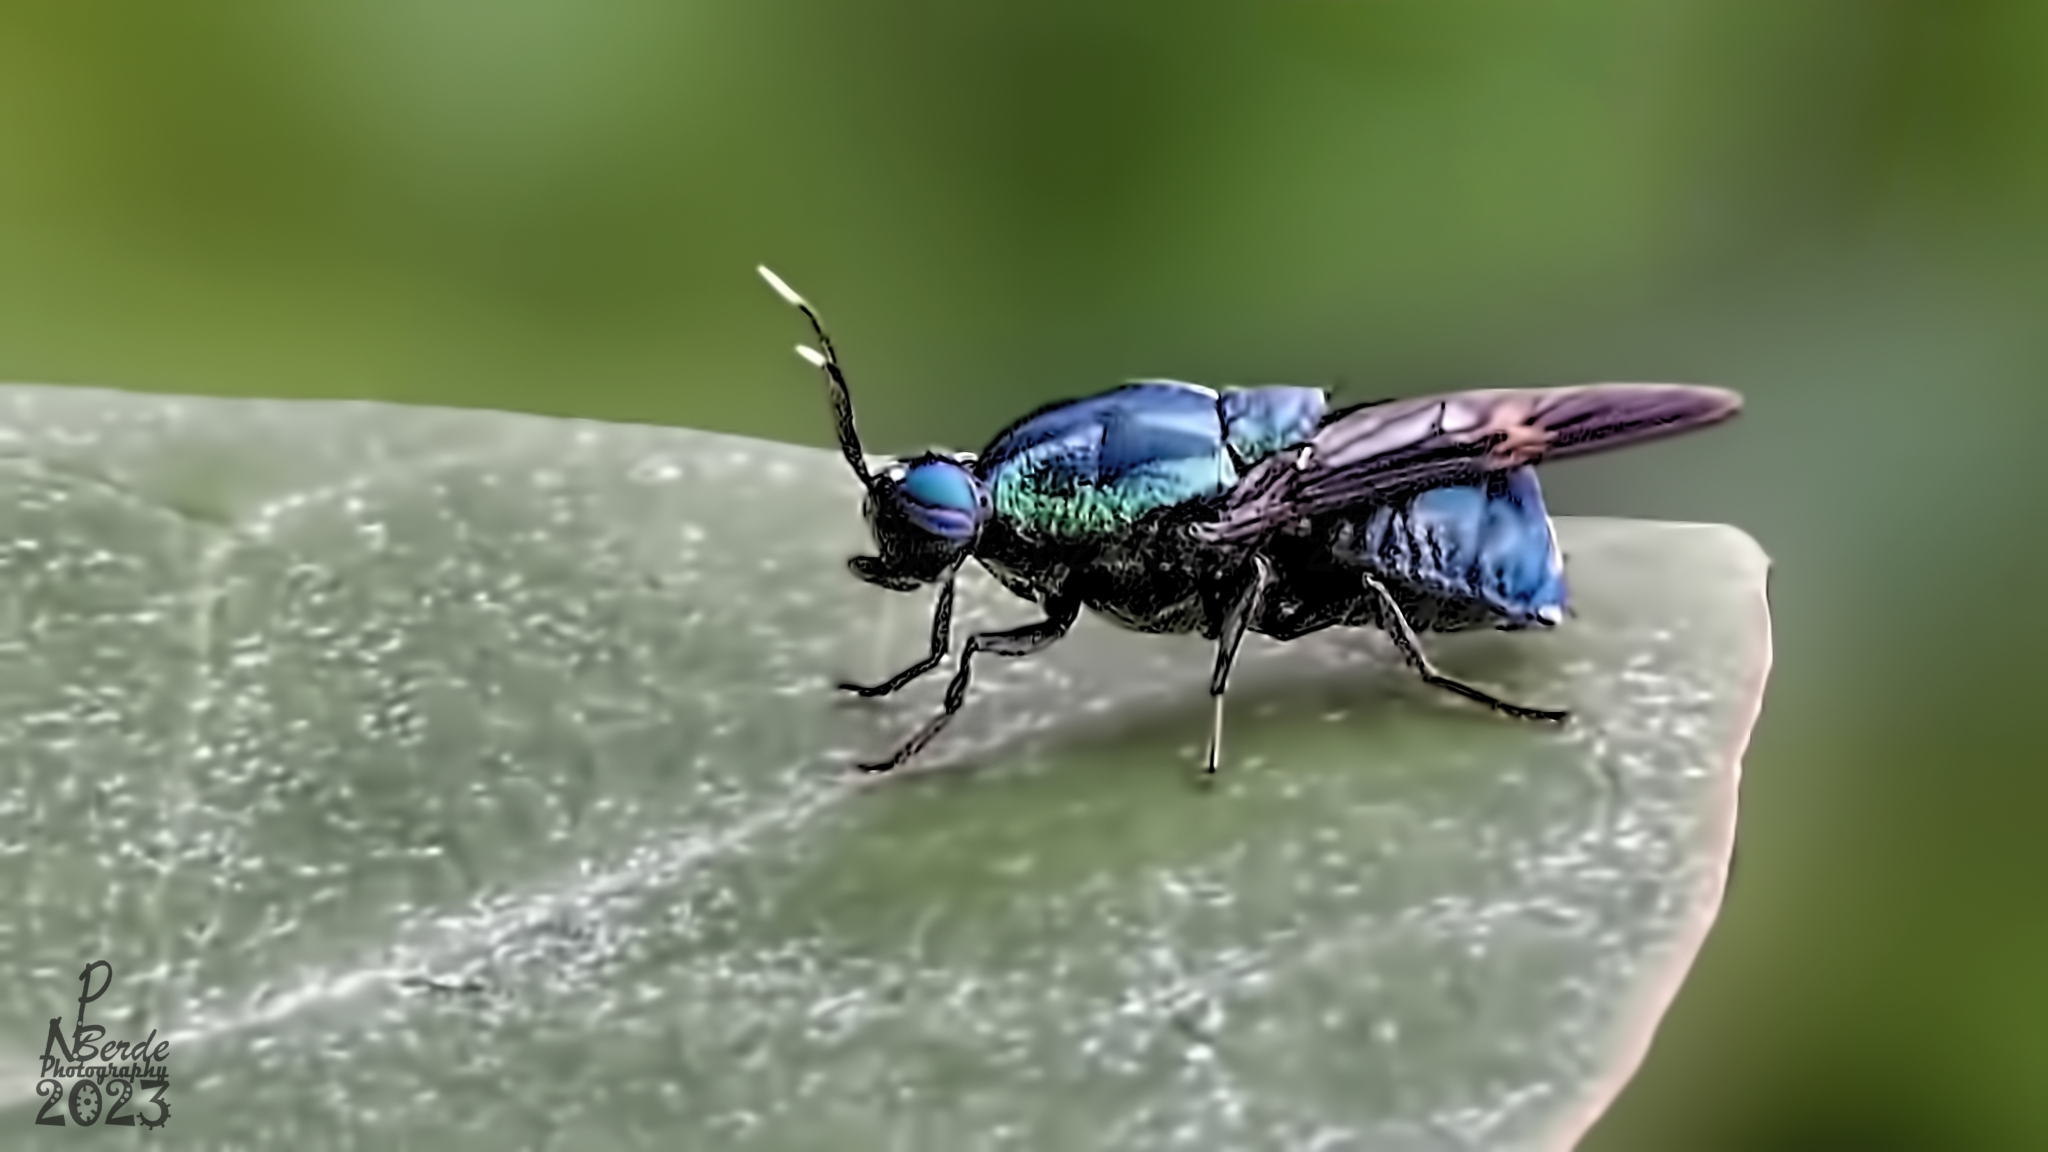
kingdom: Animalia
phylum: Arthropoda
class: Insecta
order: Diptera
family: Stratiomyidae
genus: Ptilocera
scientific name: Ptilocera continua
